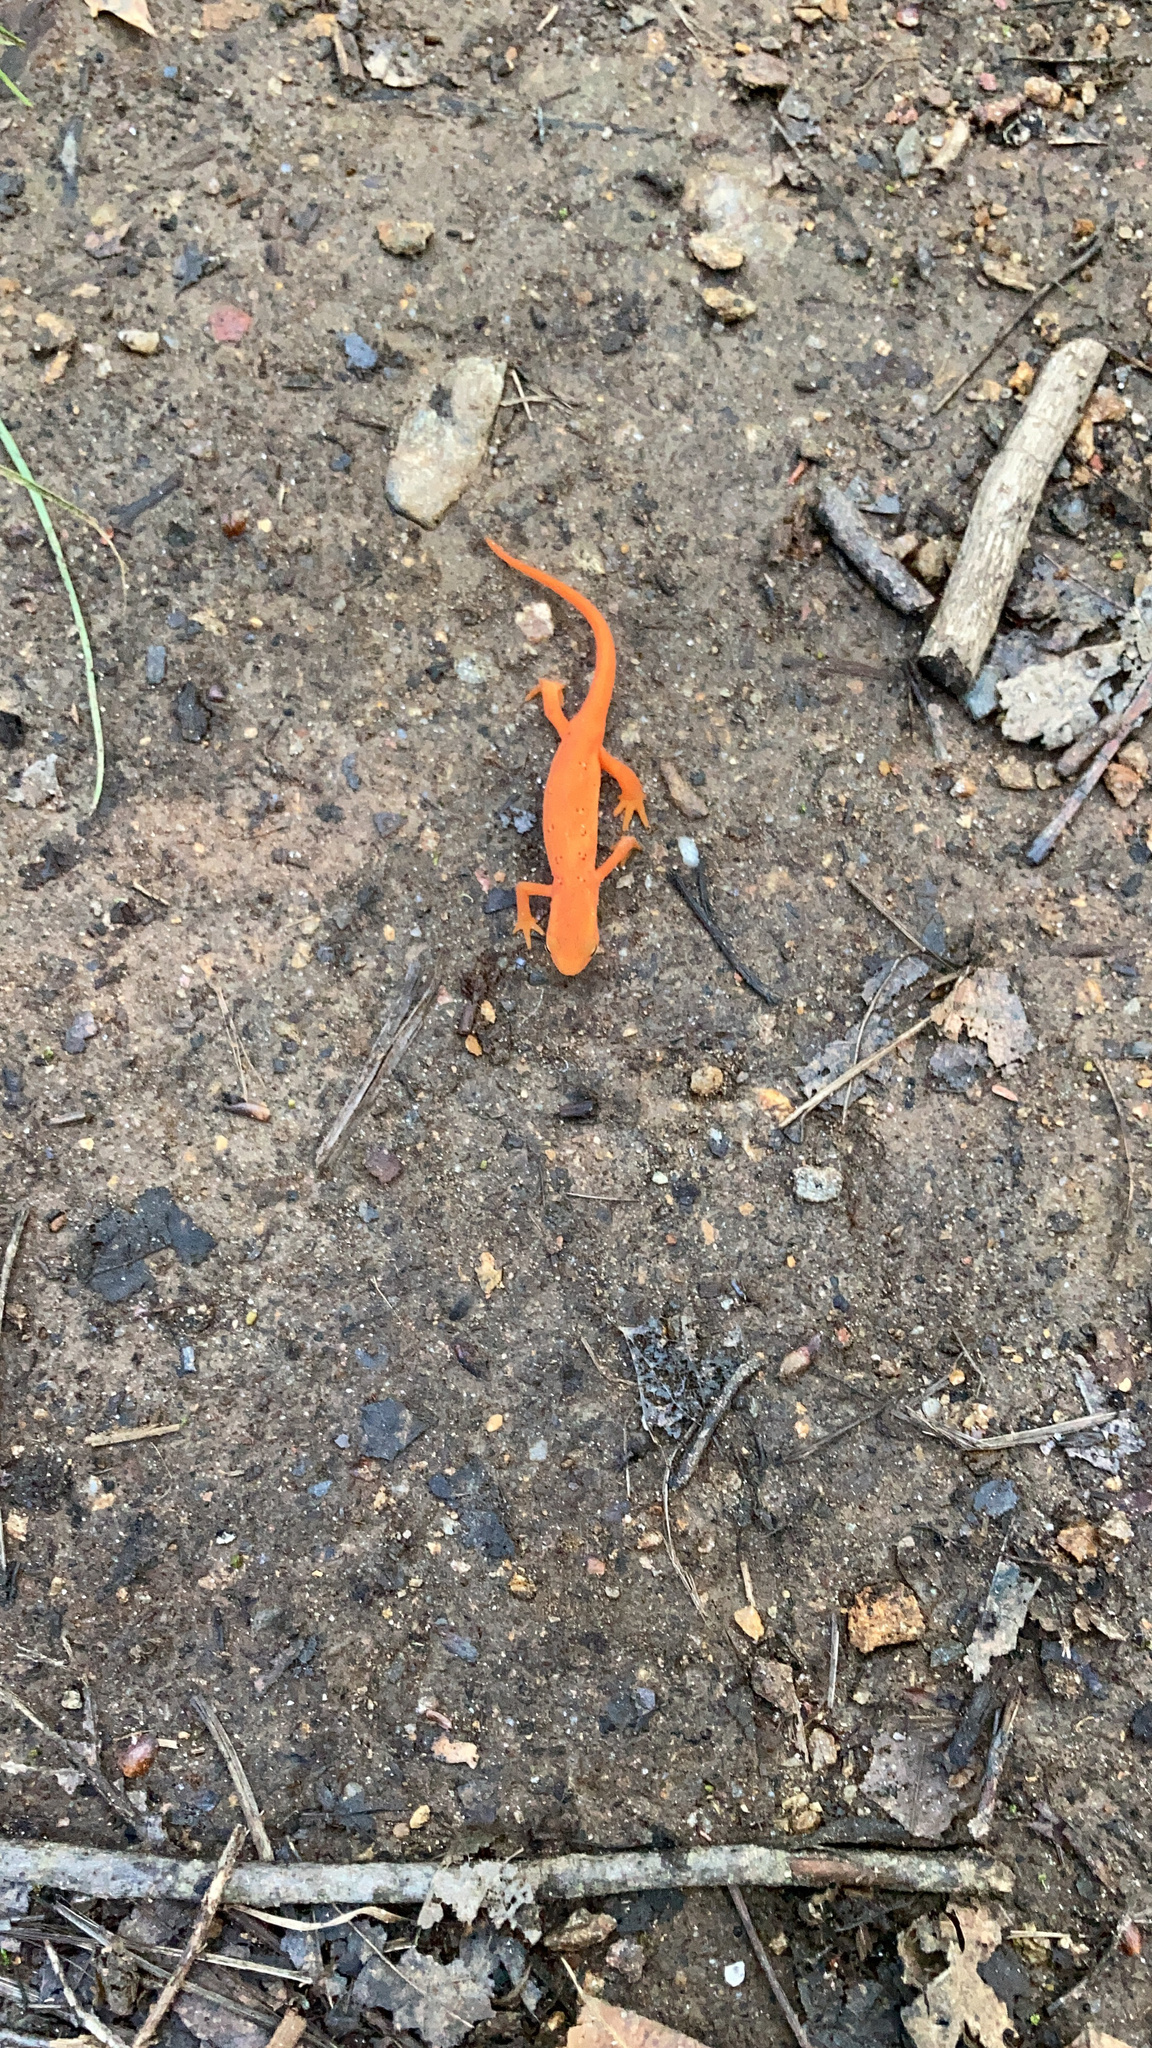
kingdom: Animalia
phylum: Chordata
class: Amphibia
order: Caudata
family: Salamandridae
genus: Notophthalmus
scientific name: Notophthalmus viridescens
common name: Eastern newt
